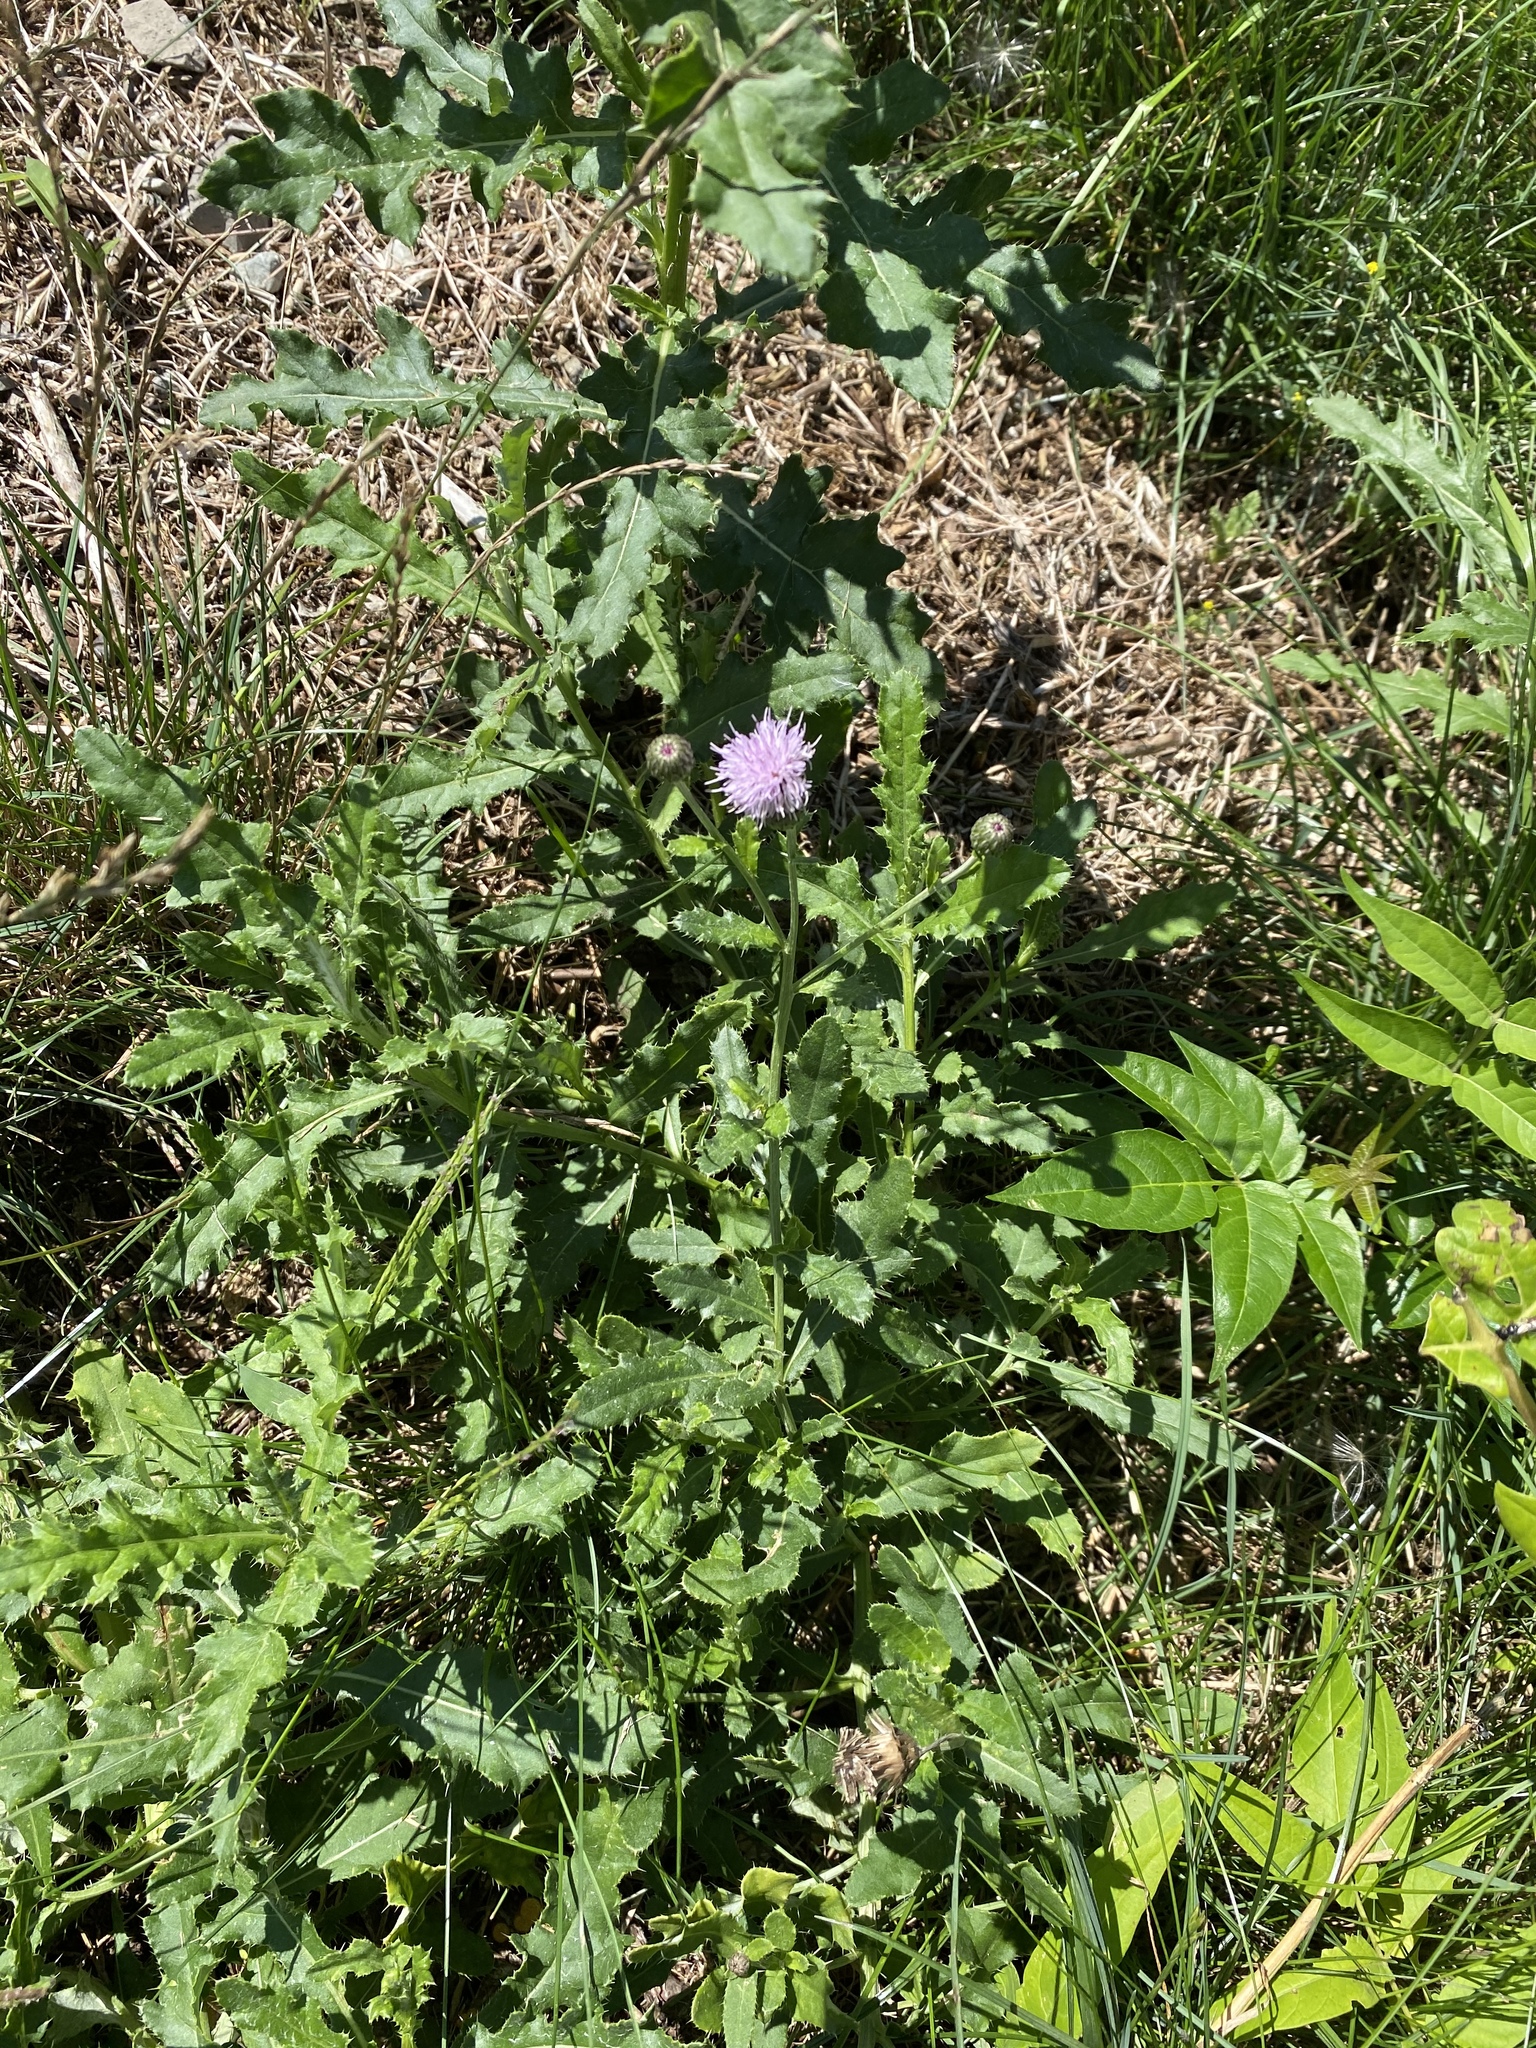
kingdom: Plantae
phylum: Tracheophyta
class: Magnoliopsida
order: Asterales
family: Asteraceae
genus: Cirsium
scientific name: Cirsium arvense
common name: Creeping thistle
